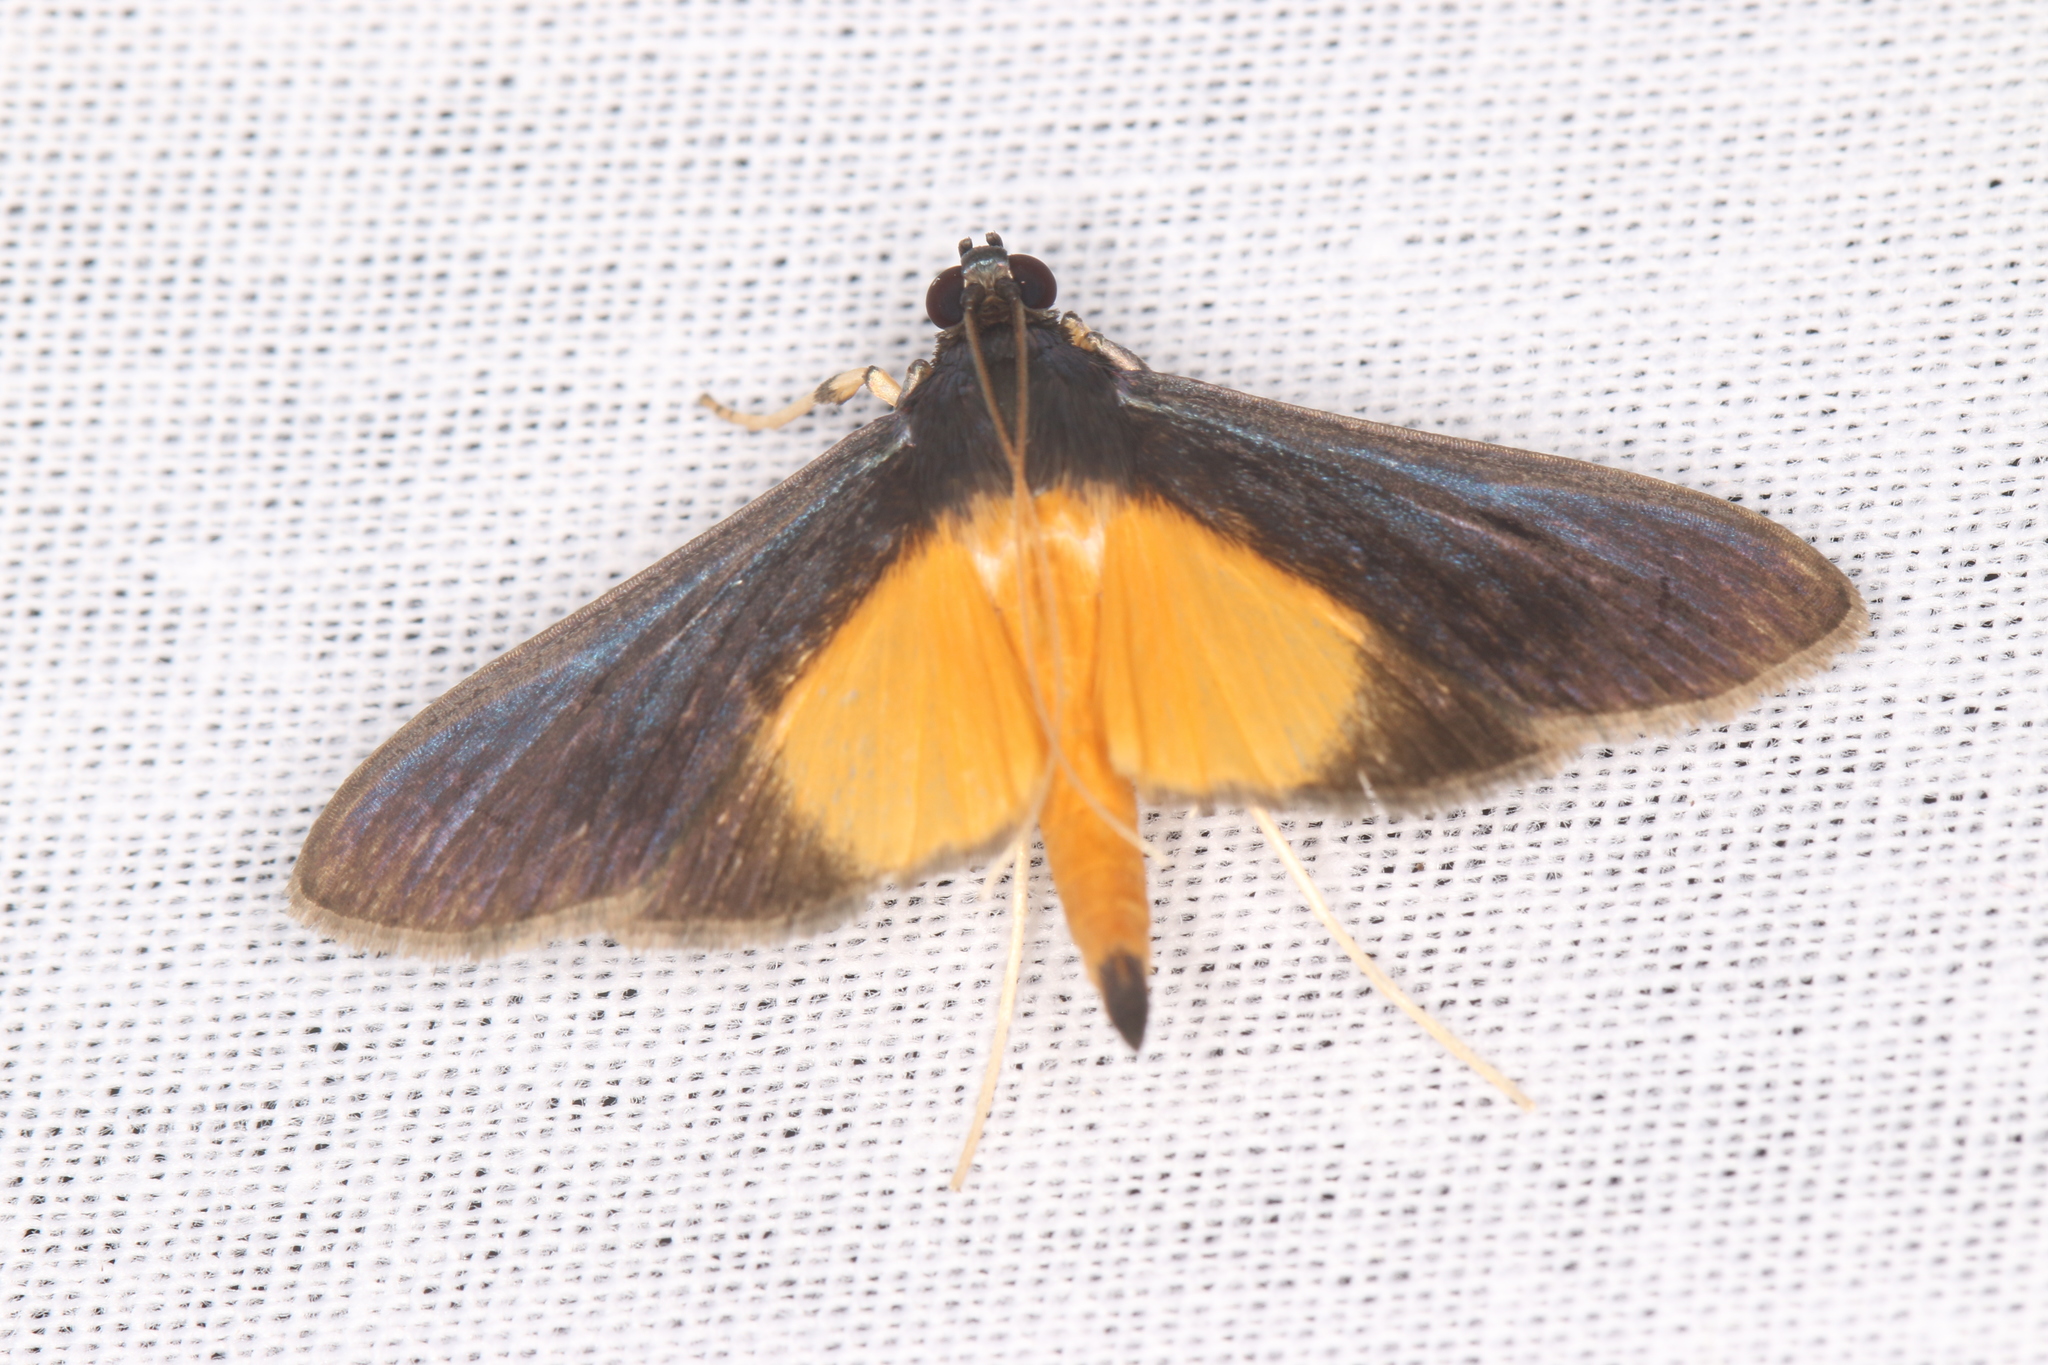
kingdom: Animalia
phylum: Arthropoda
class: Insecta
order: Lepidoptera
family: Crambidae
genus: Pilocrocis
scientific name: Pilocrocis metachrysias
